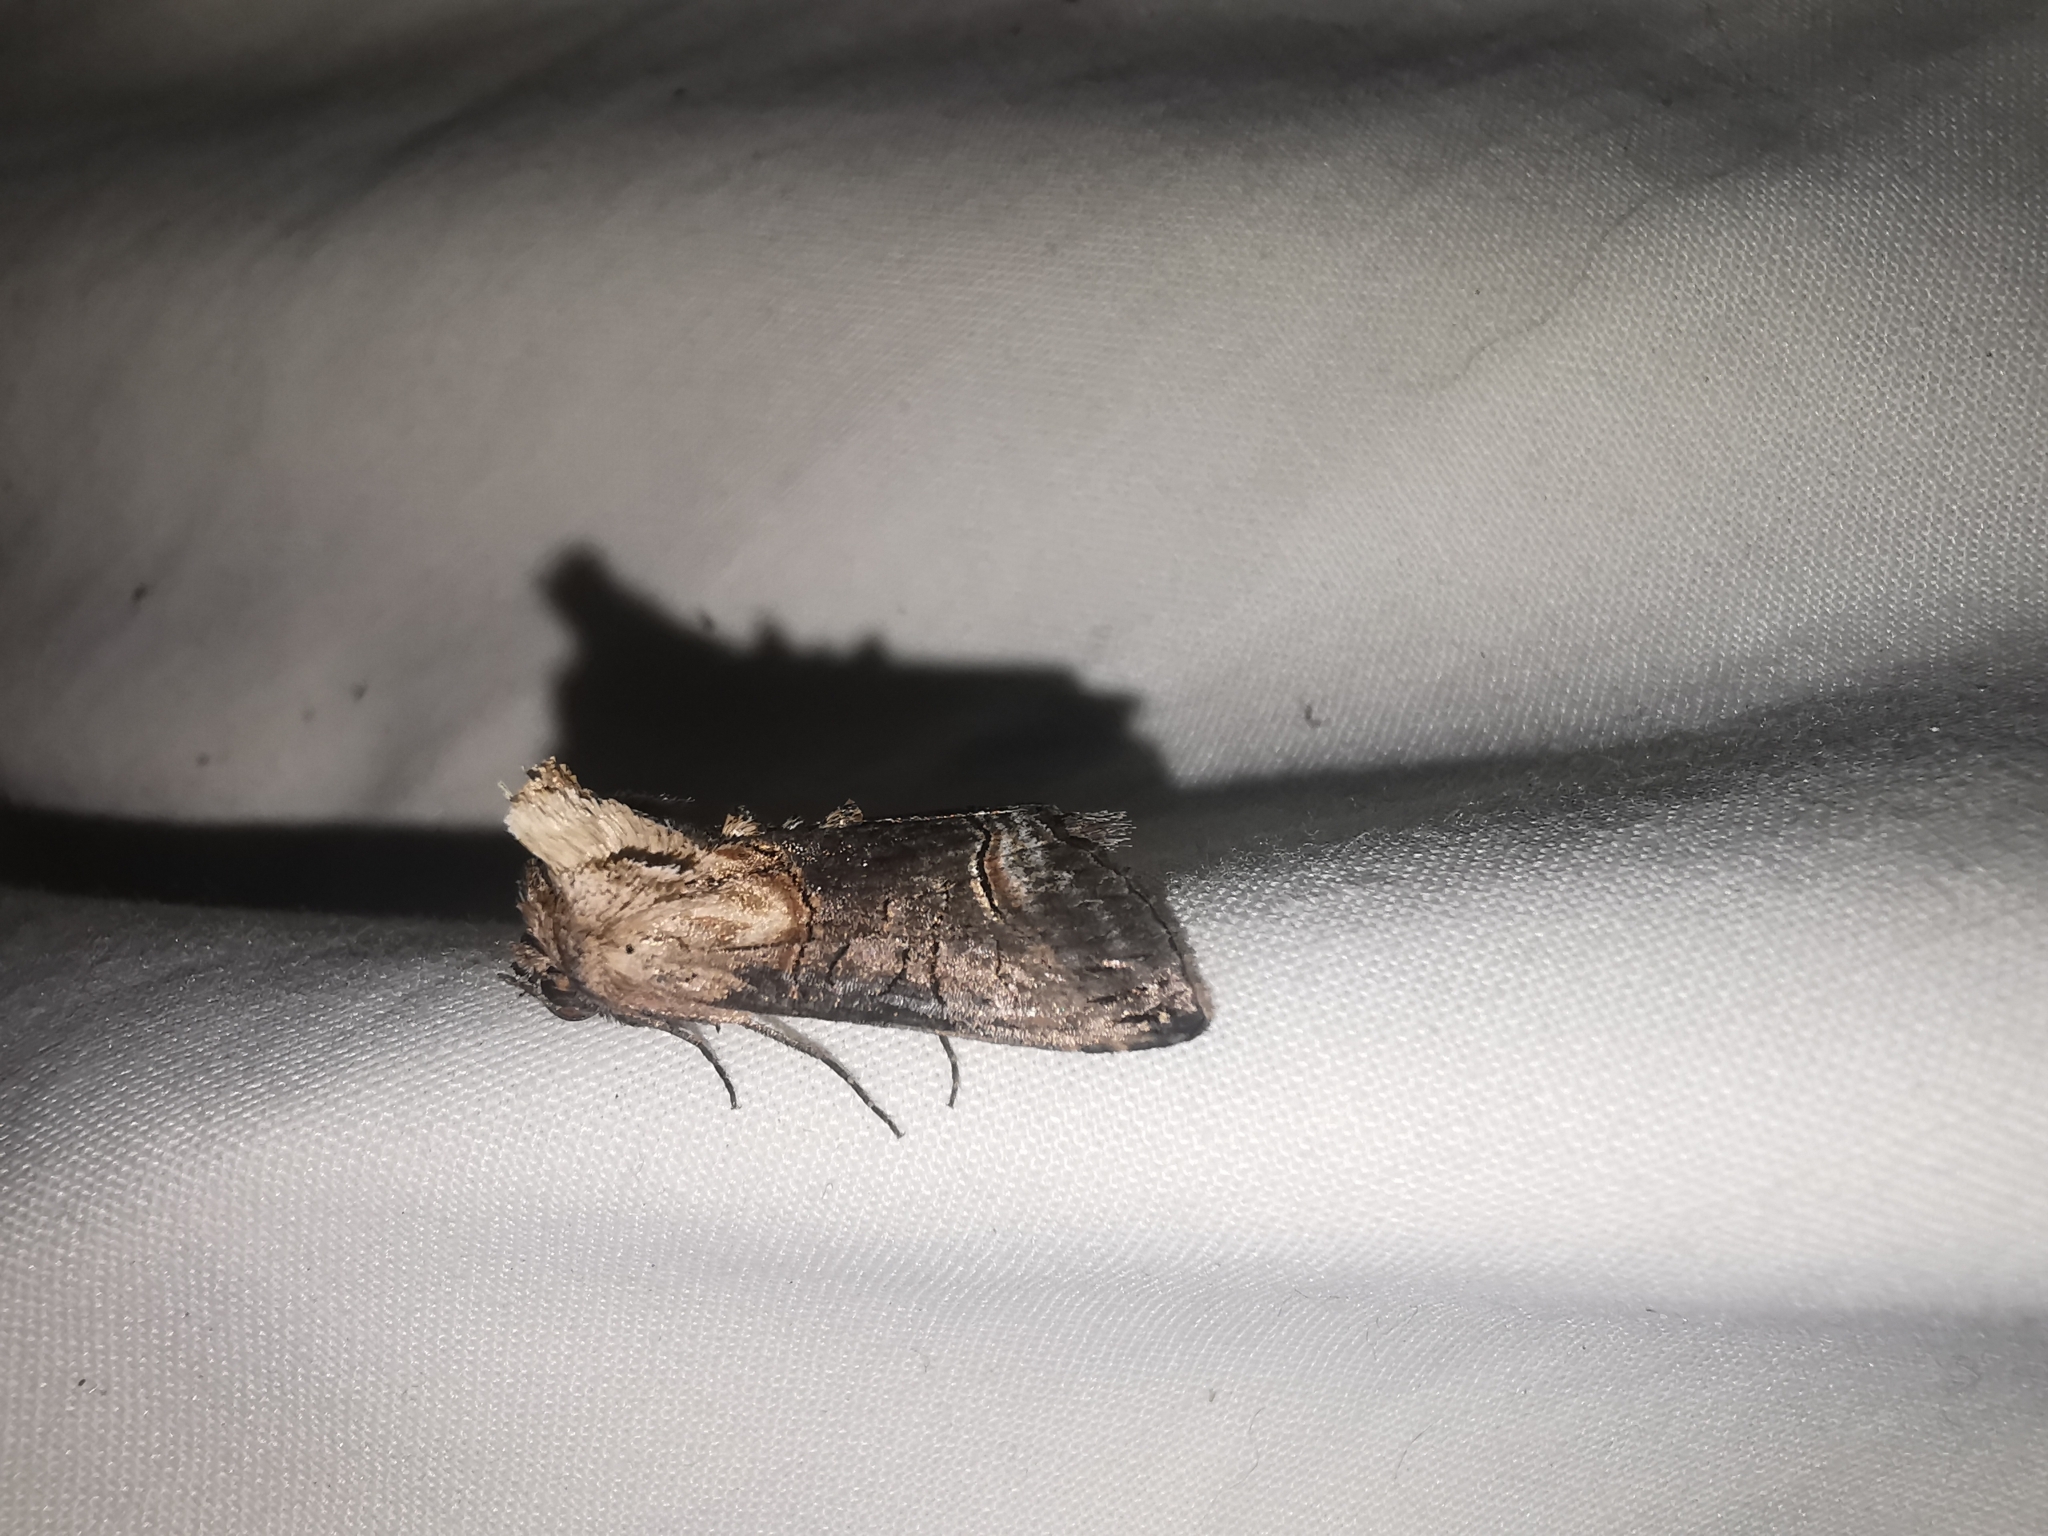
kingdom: Animalia
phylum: Arthropoda
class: Insecta
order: Lepidoptera
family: Noctuidae
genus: Abrostola
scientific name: Abrostola triplasia
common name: Dark spectacle
